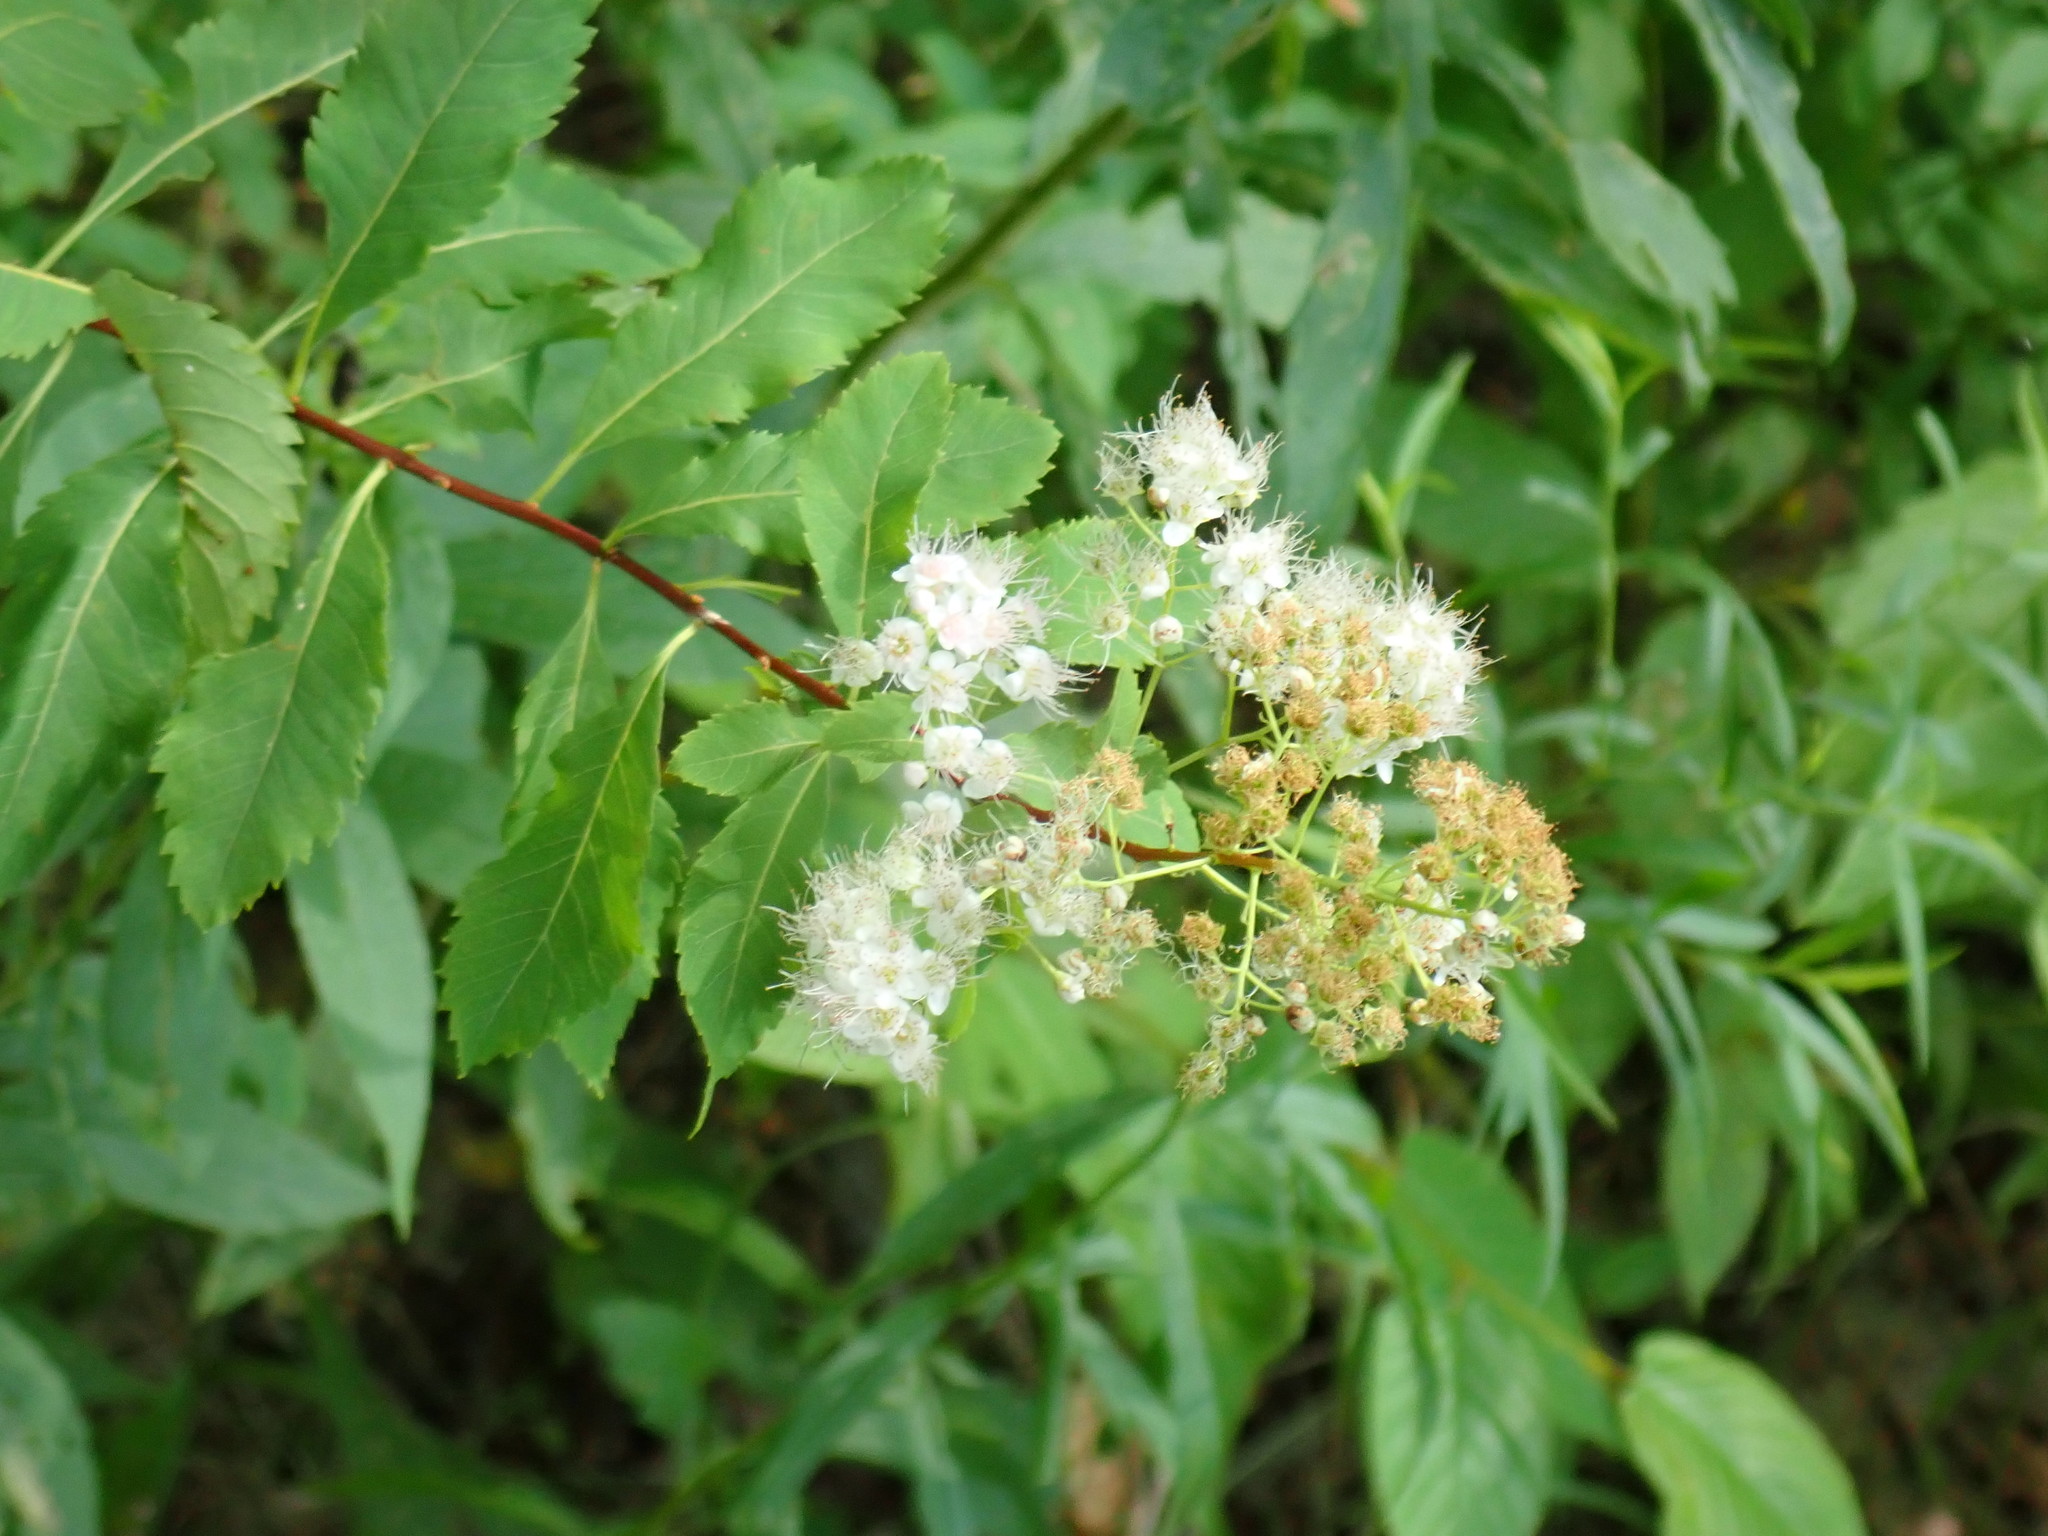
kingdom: Plantae
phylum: Tracheophyta
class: Magnoliopsida
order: Rosales
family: Rosaceae
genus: Spiraea
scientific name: Spiraea alba
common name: Pale bridewort
